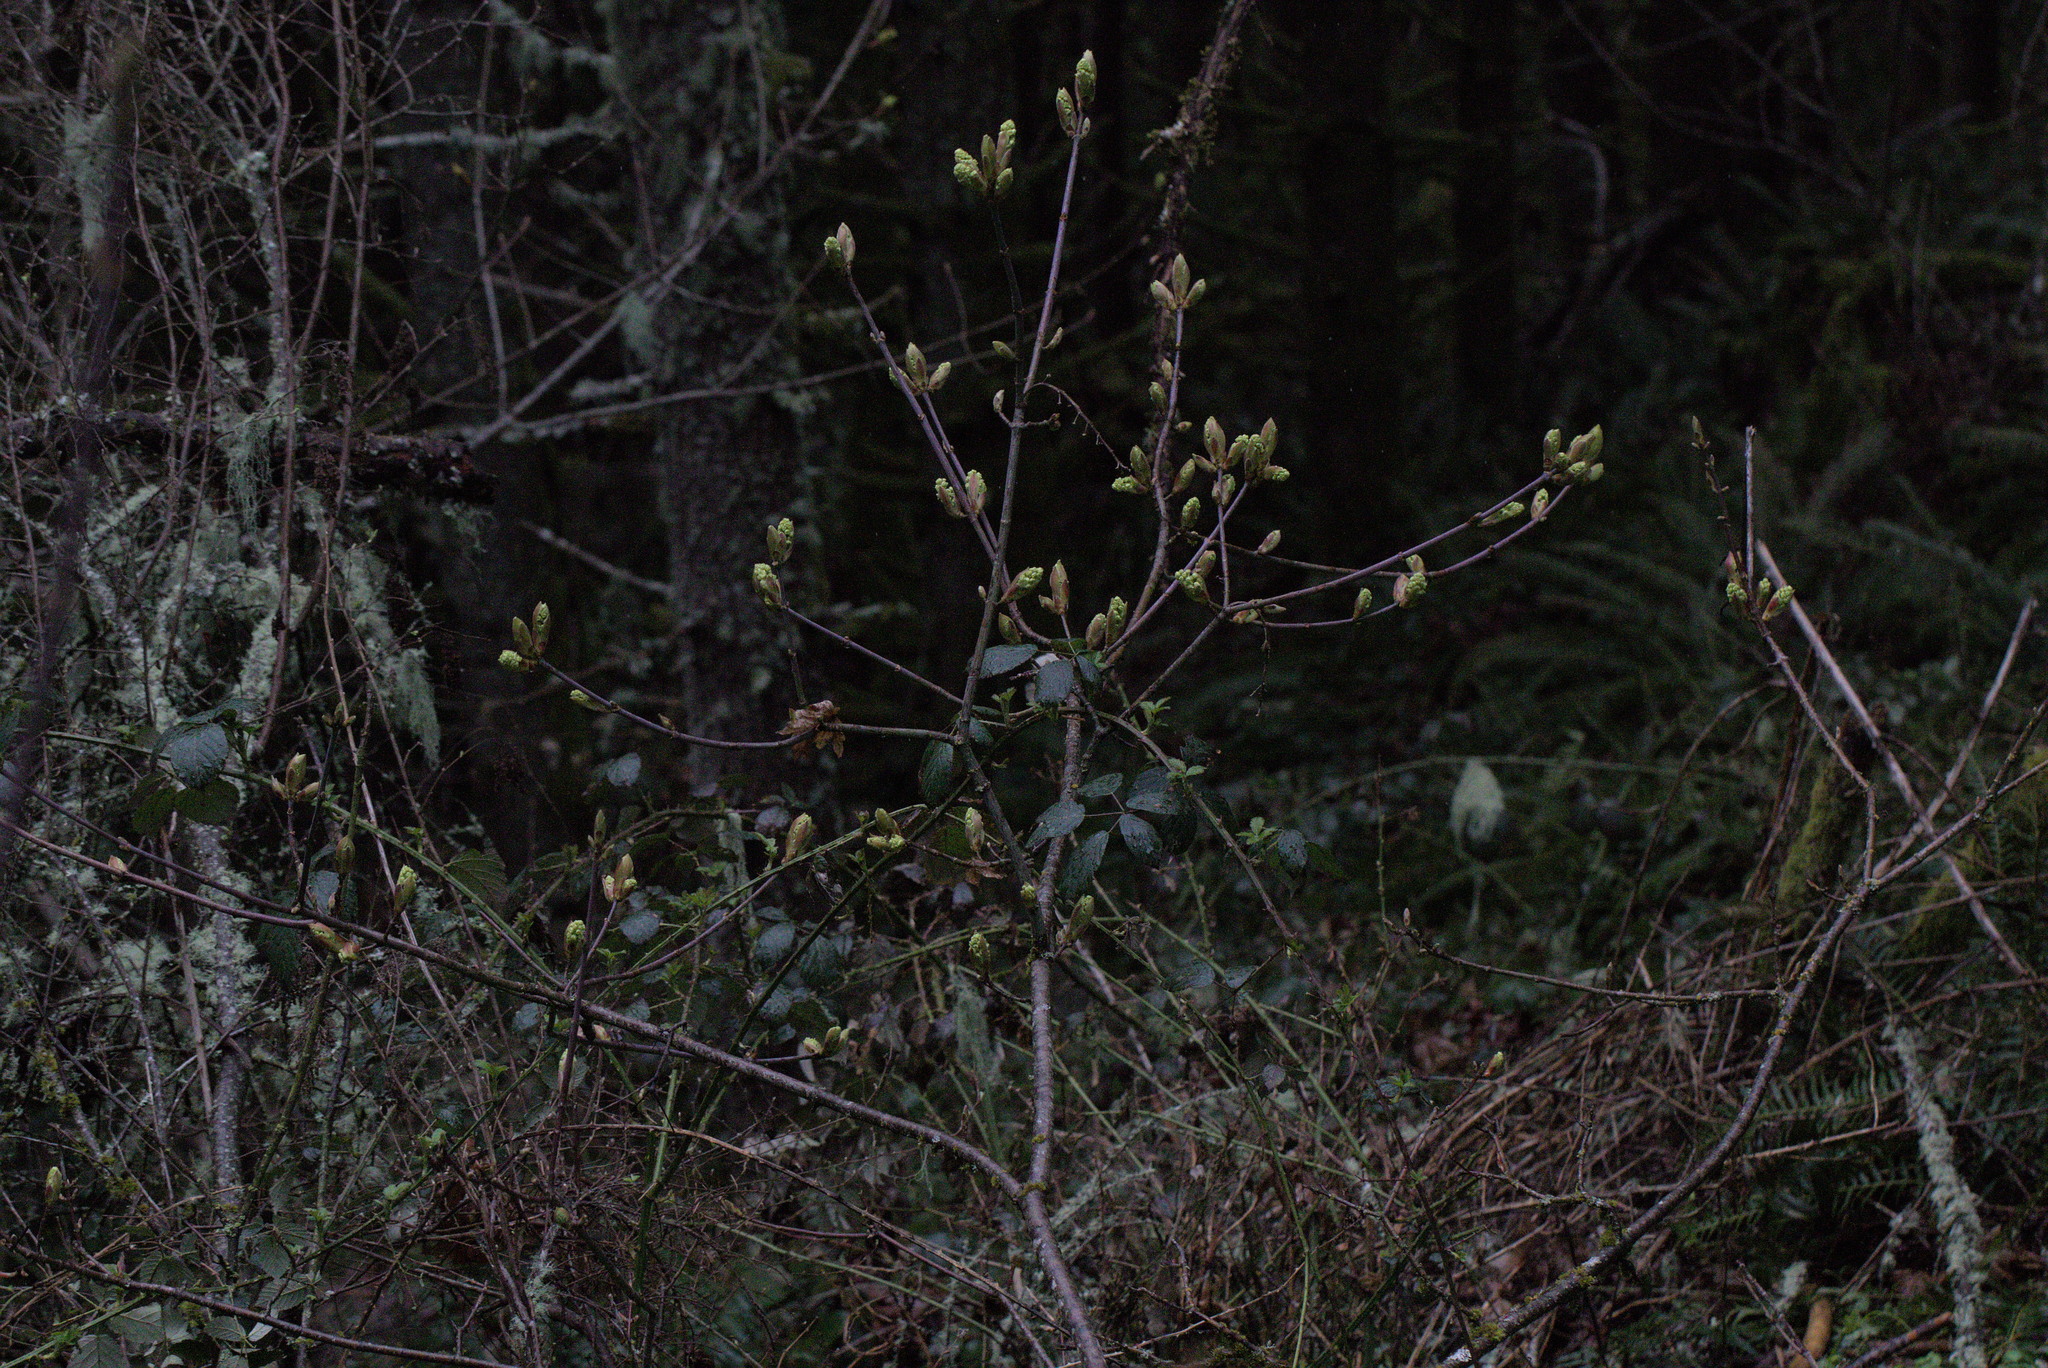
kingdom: Plantae
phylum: Tracheophyta
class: Magnoliopsida
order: Sapindales
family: Sapindaceae
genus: Acer
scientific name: Acer macrophyllum
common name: Oregon maple
